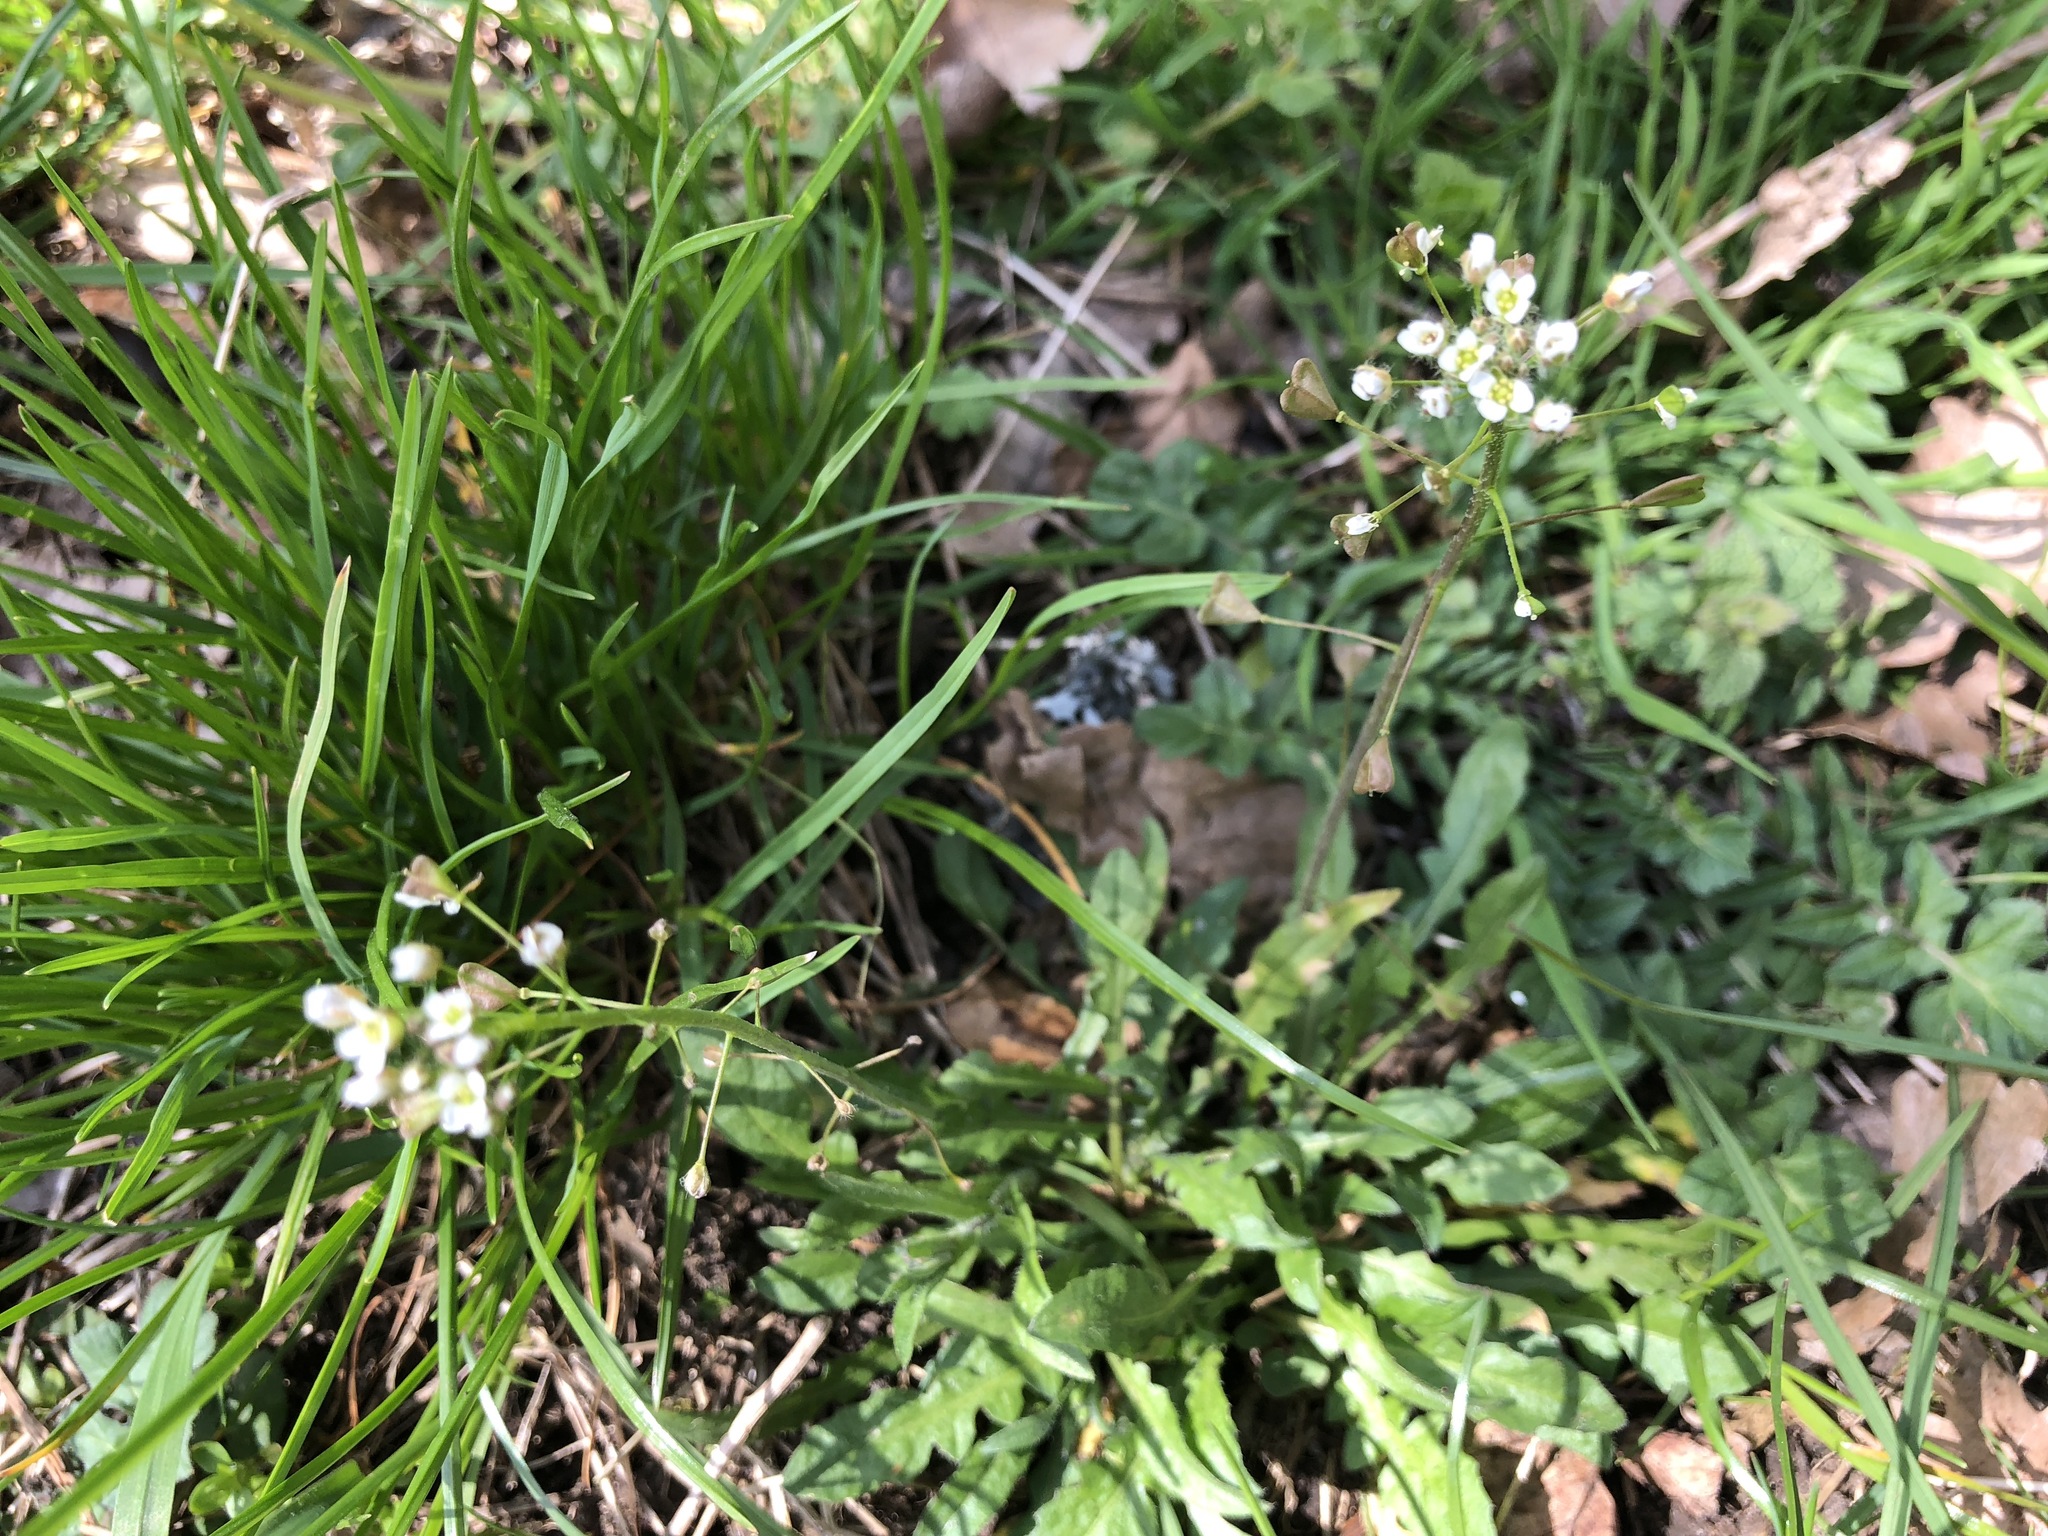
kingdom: Plantae
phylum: Tracheophyta
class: Magnoliopsida
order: Brassicales
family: Brassicaceae
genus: Capsella
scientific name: Capsella bursa-pastoris
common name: Shepherd's purse
